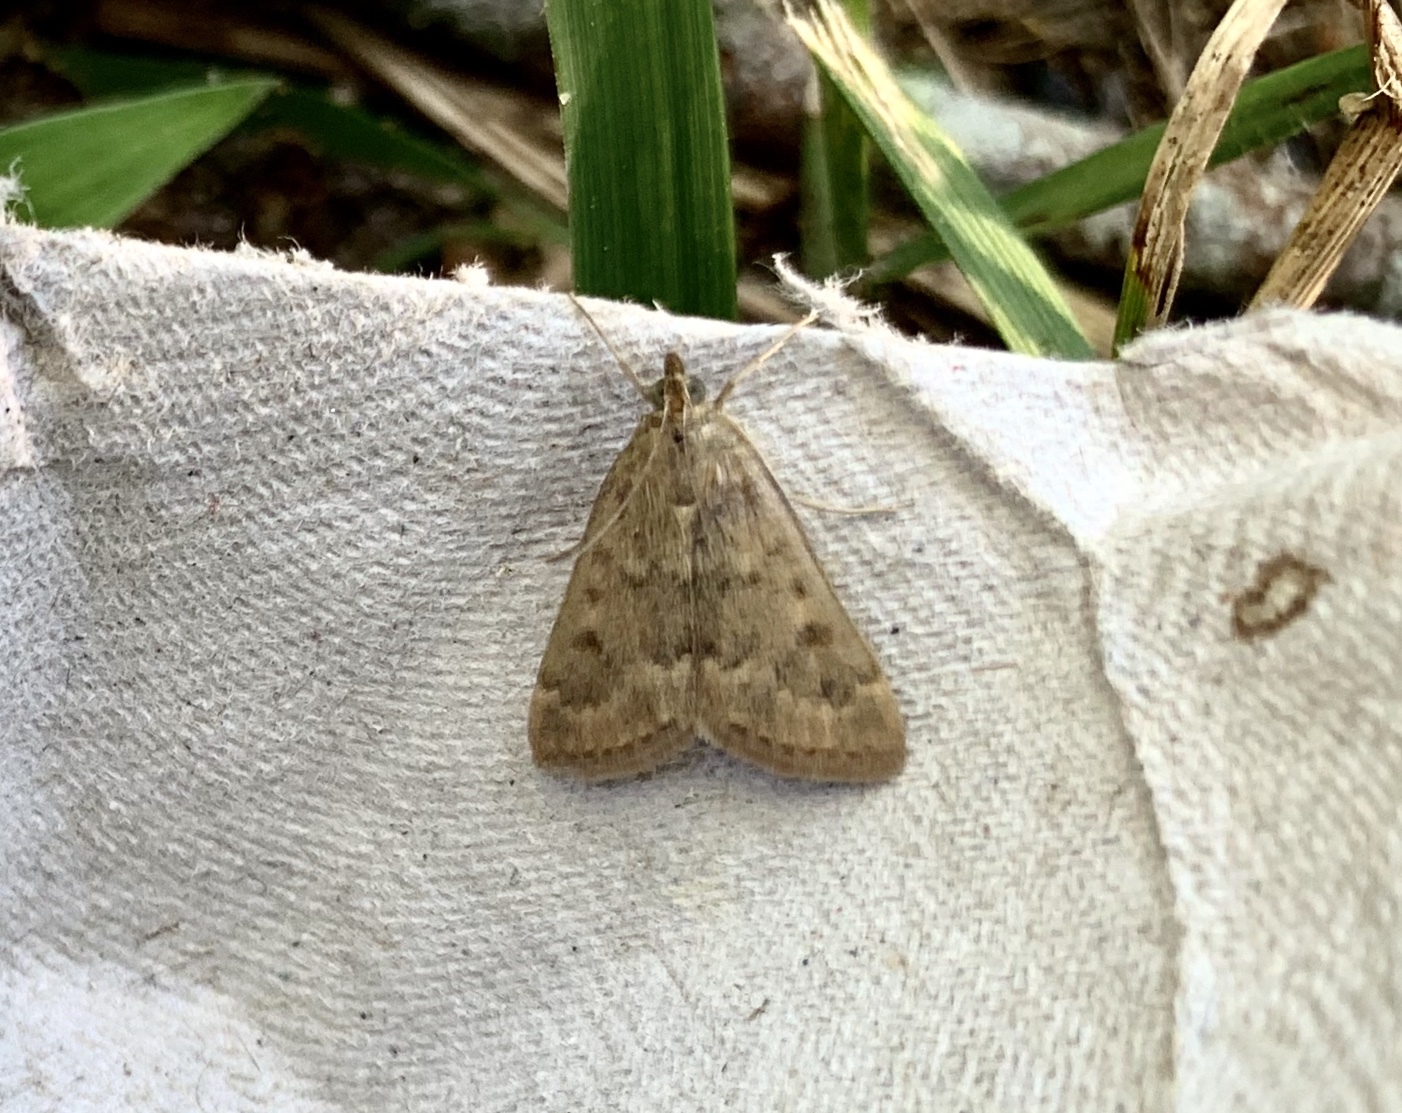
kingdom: Animalia
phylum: Arthropoda
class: Insecta
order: Lepidoptera
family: Crambidae
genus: Achyra
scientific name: Achyra rantalis
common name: Garden webworm
